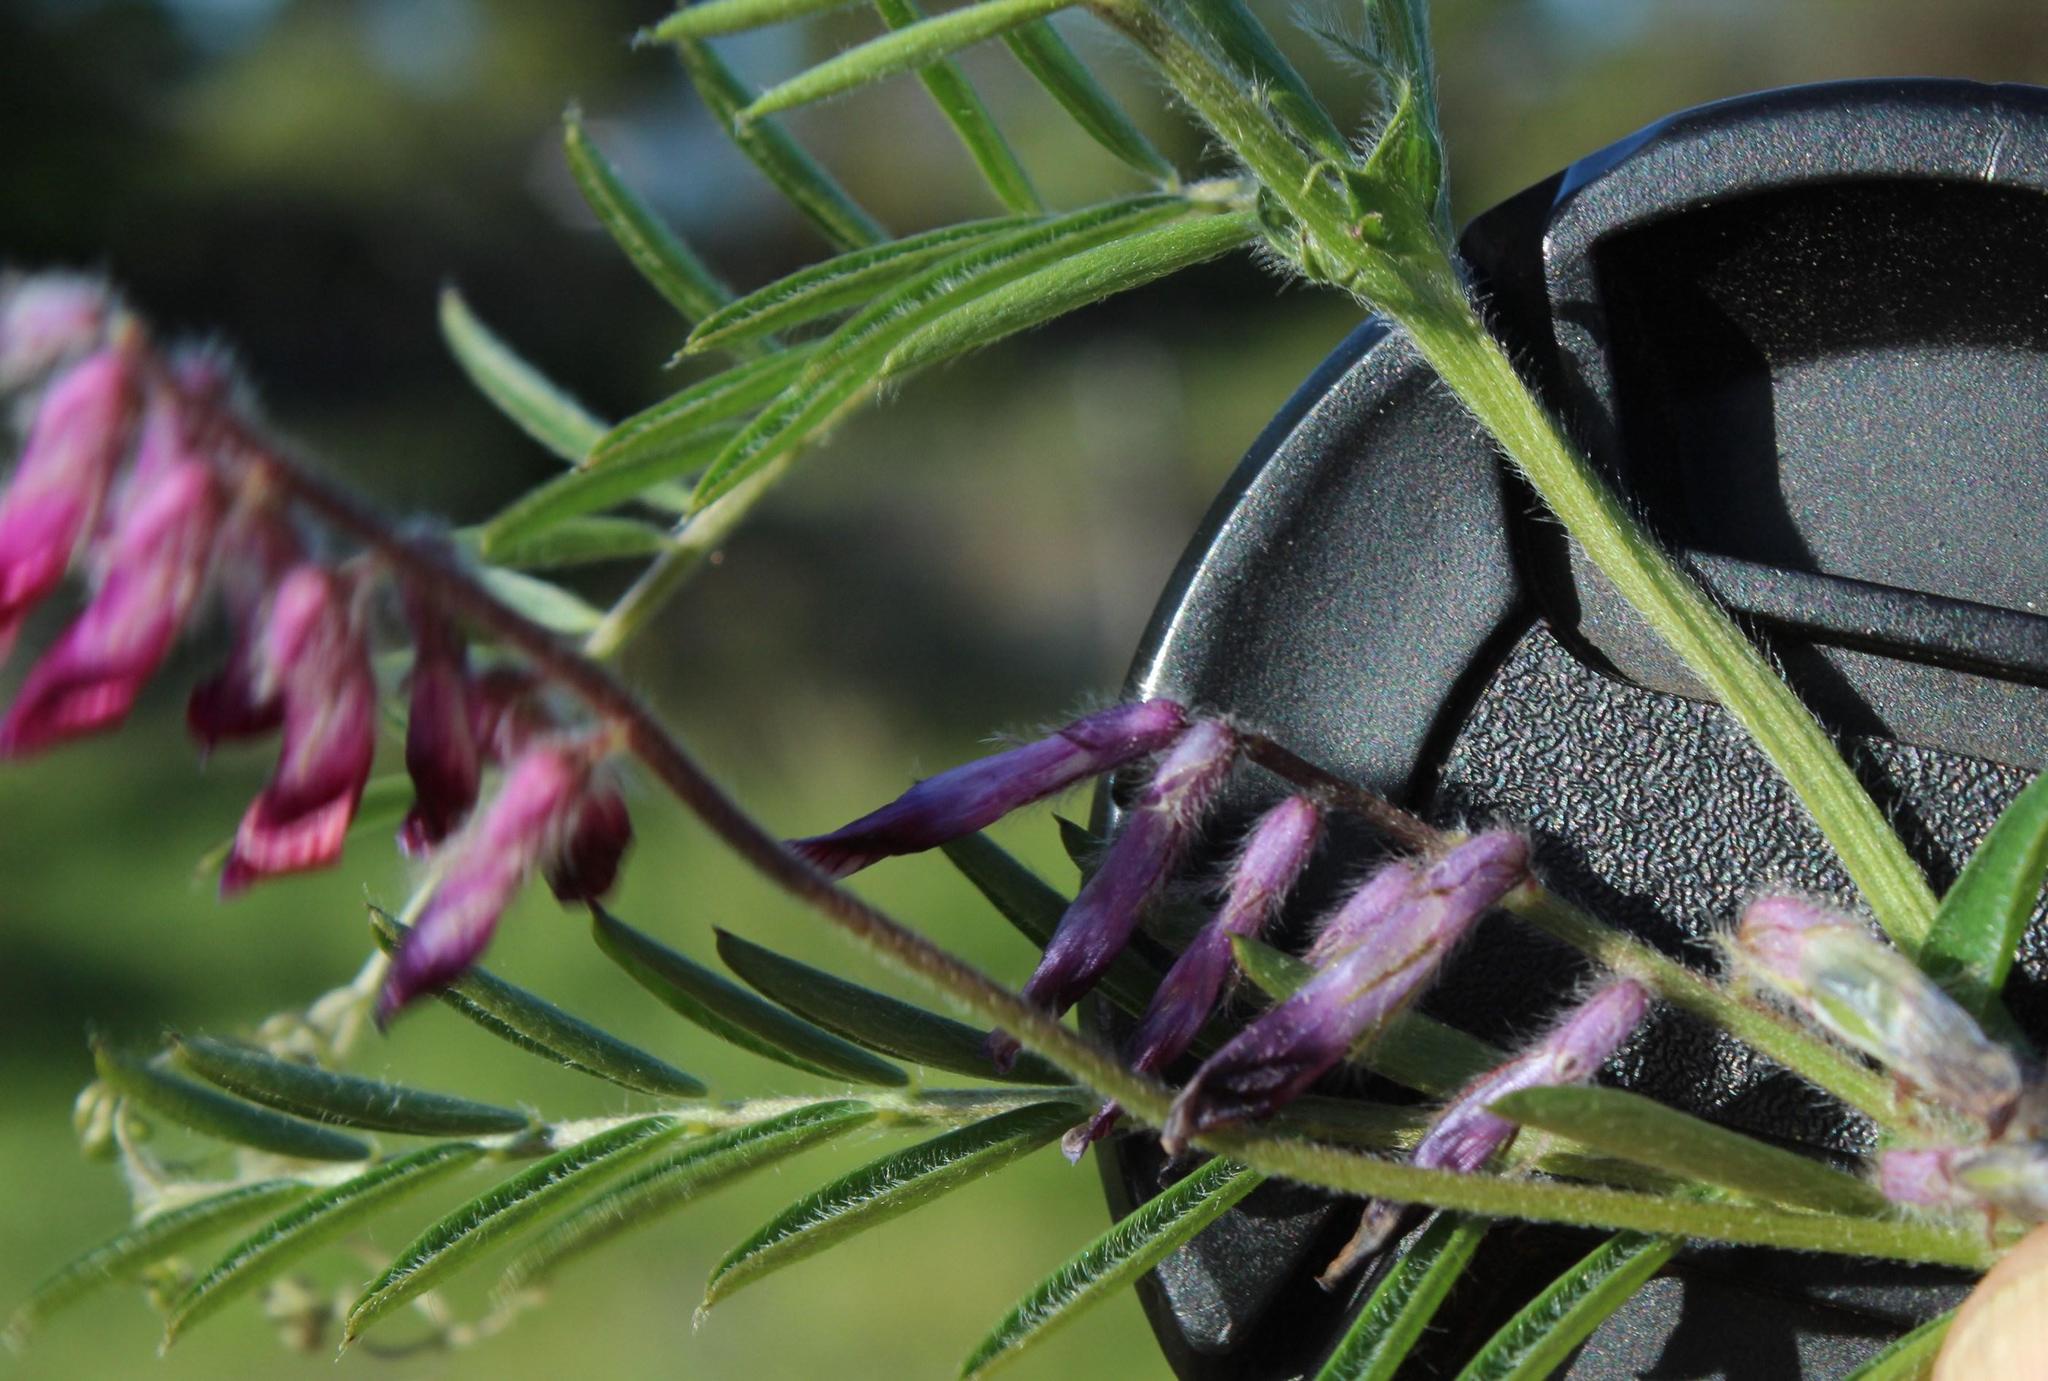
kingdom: Plantae
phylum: Tracheophyta
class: Magnoliopsida
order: Fabales
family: Fabaceae
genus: Vicia
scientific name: Vicia benghalensis
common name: Purple vetch
